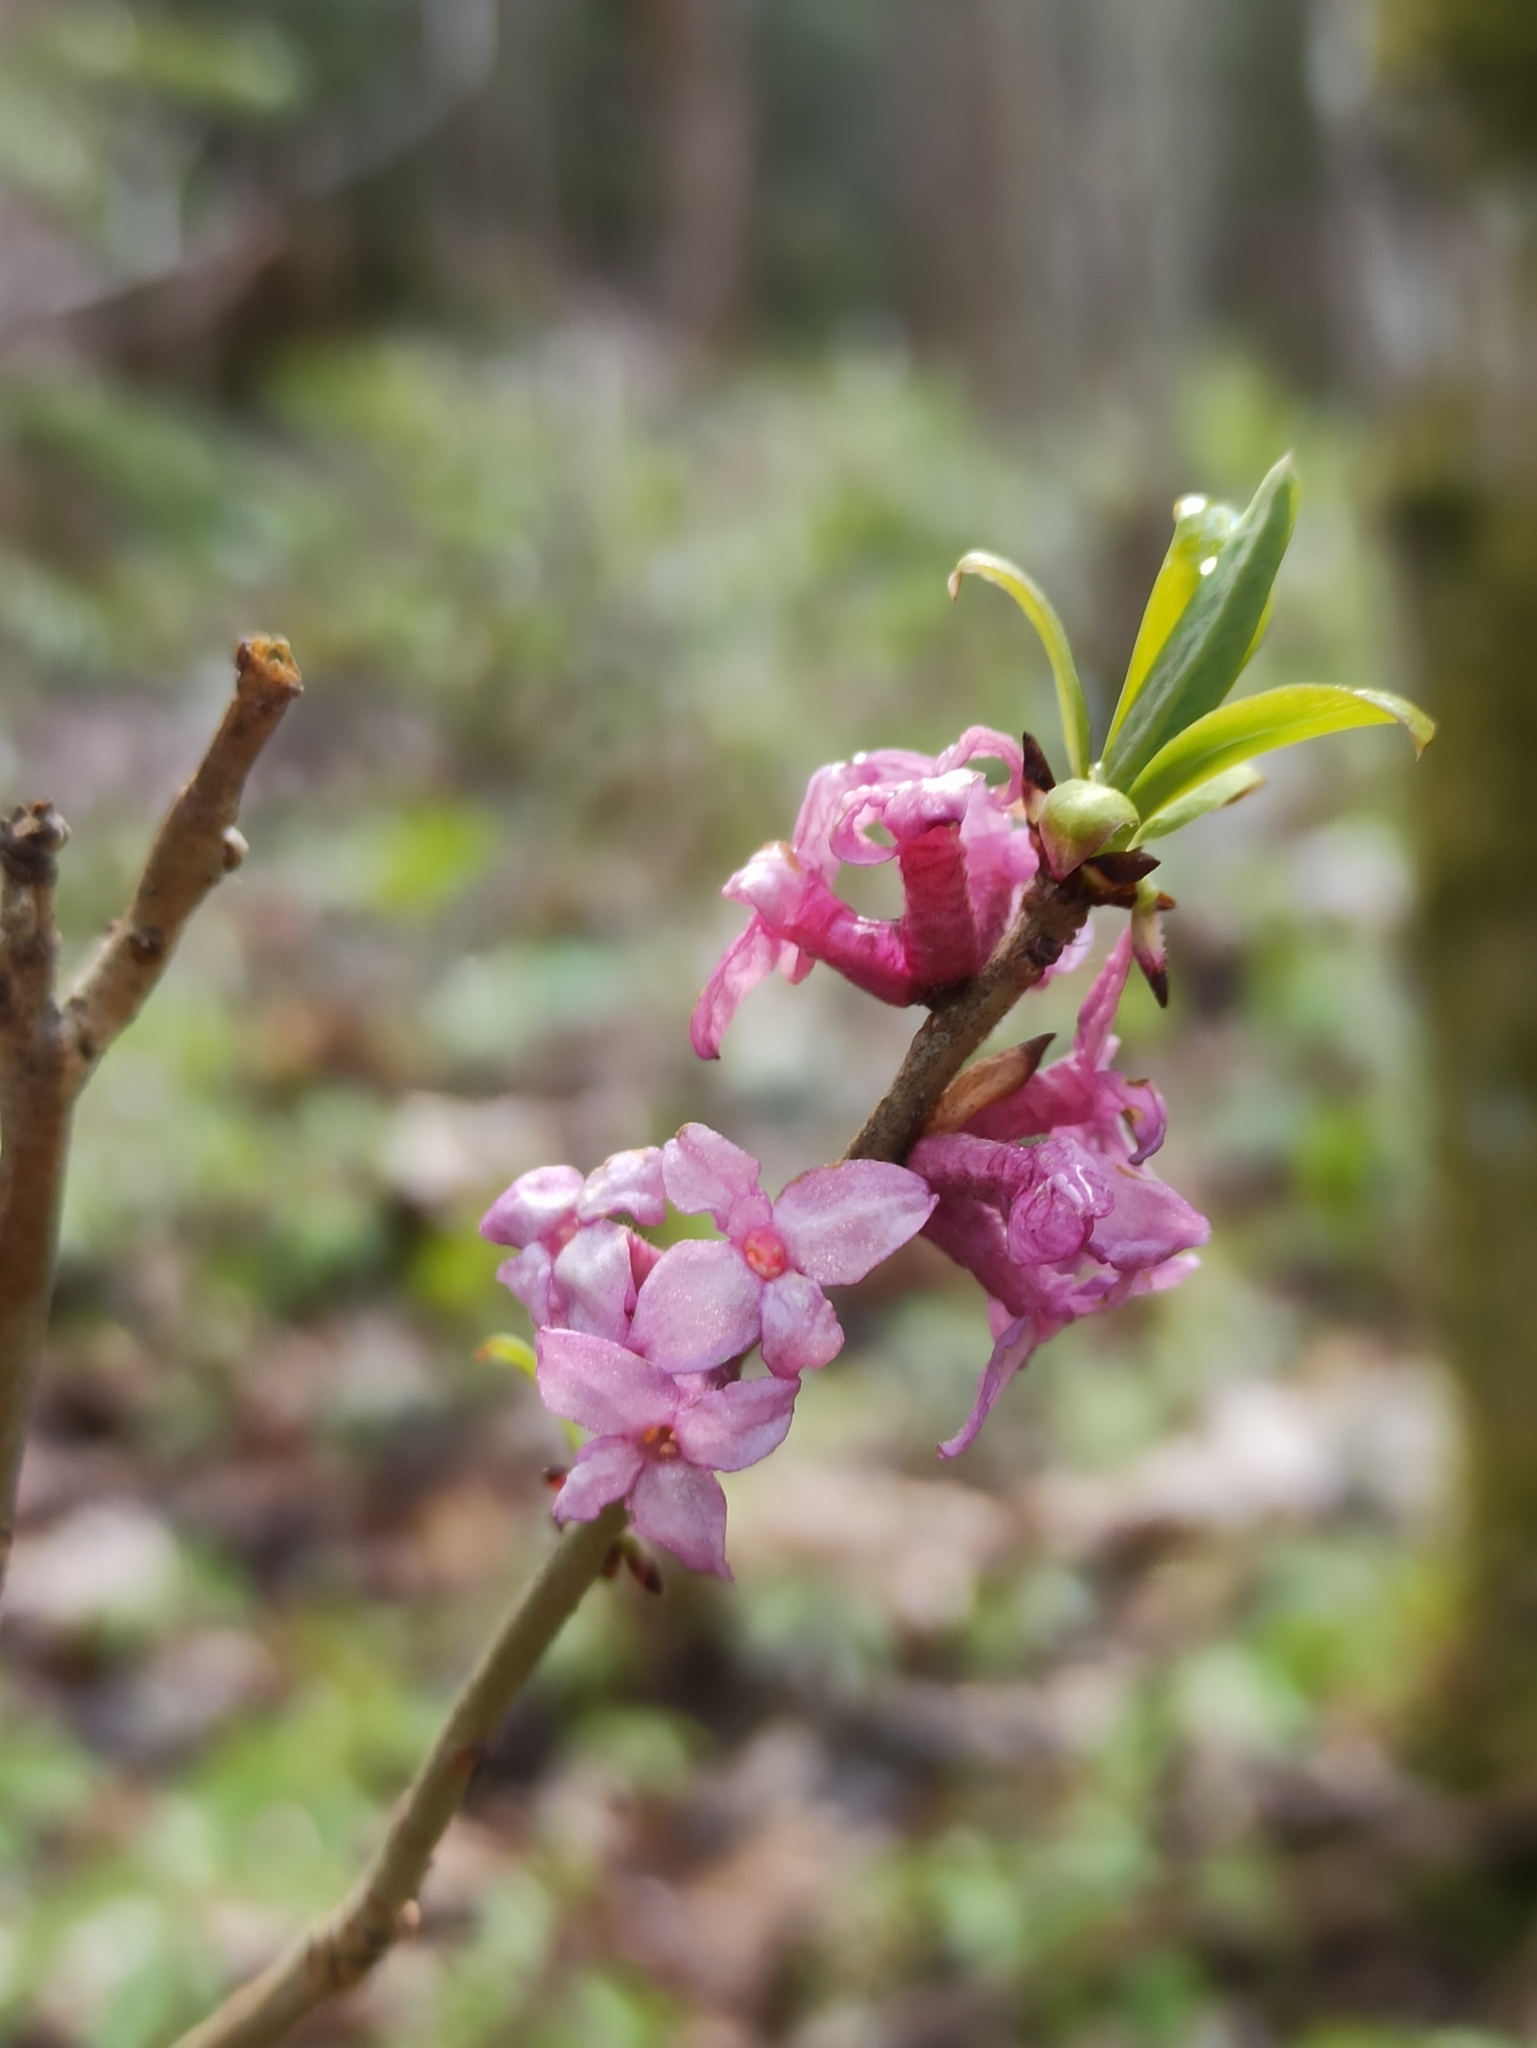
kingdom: Plantae
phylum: Tracheophyta
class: Magnoliopsida
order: Malvales
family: Thymelaeaceae
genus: Daphne
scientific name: Daphne mezereum
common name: Mezereon
